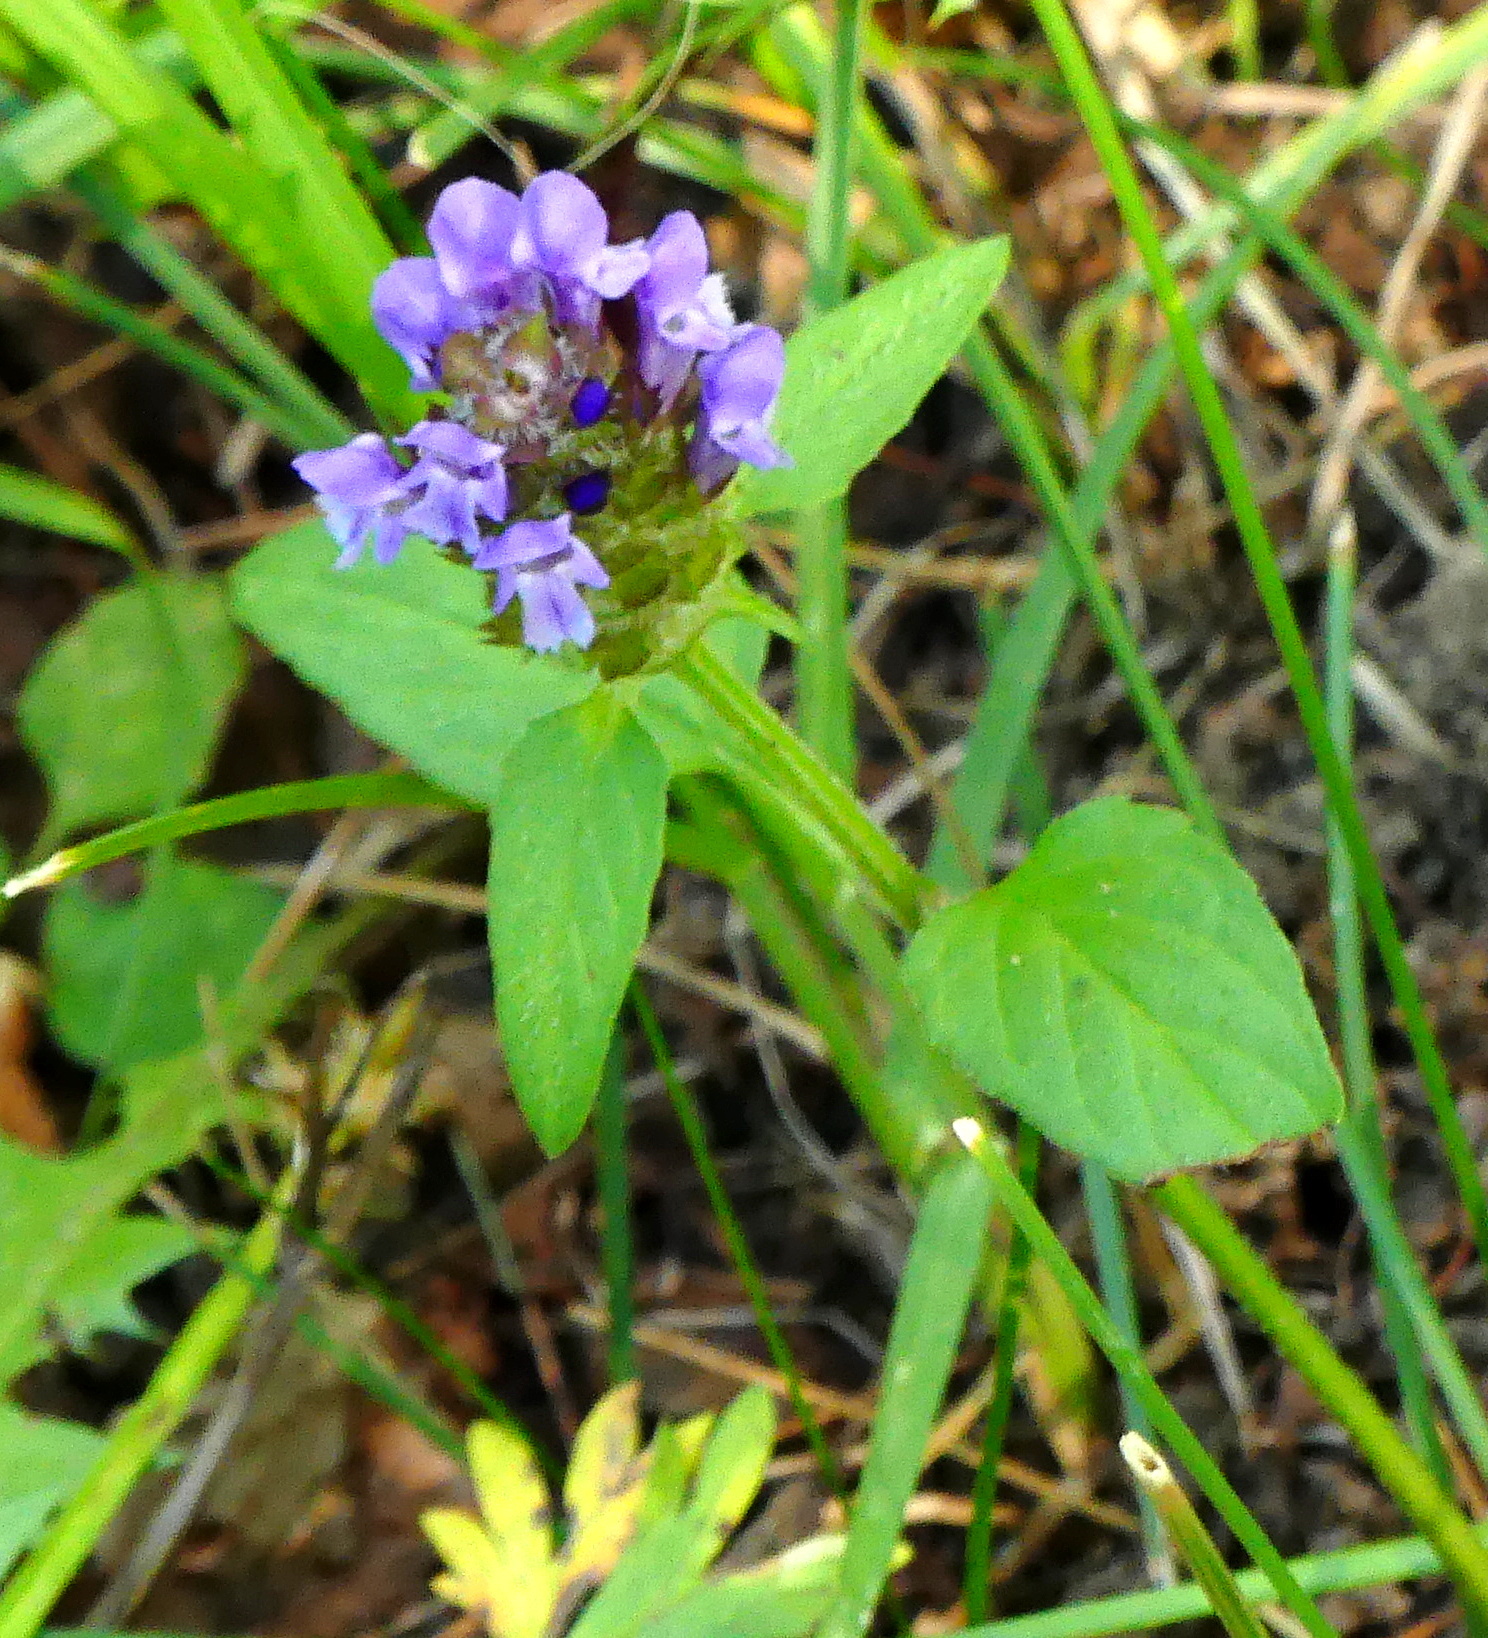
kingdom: Plantae
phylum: Tracheophyta
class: Magnoliopsida
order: Lamiales
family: Lamiaceae
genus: Prunella
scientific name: Prunella vulgaris
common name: Heal-all
